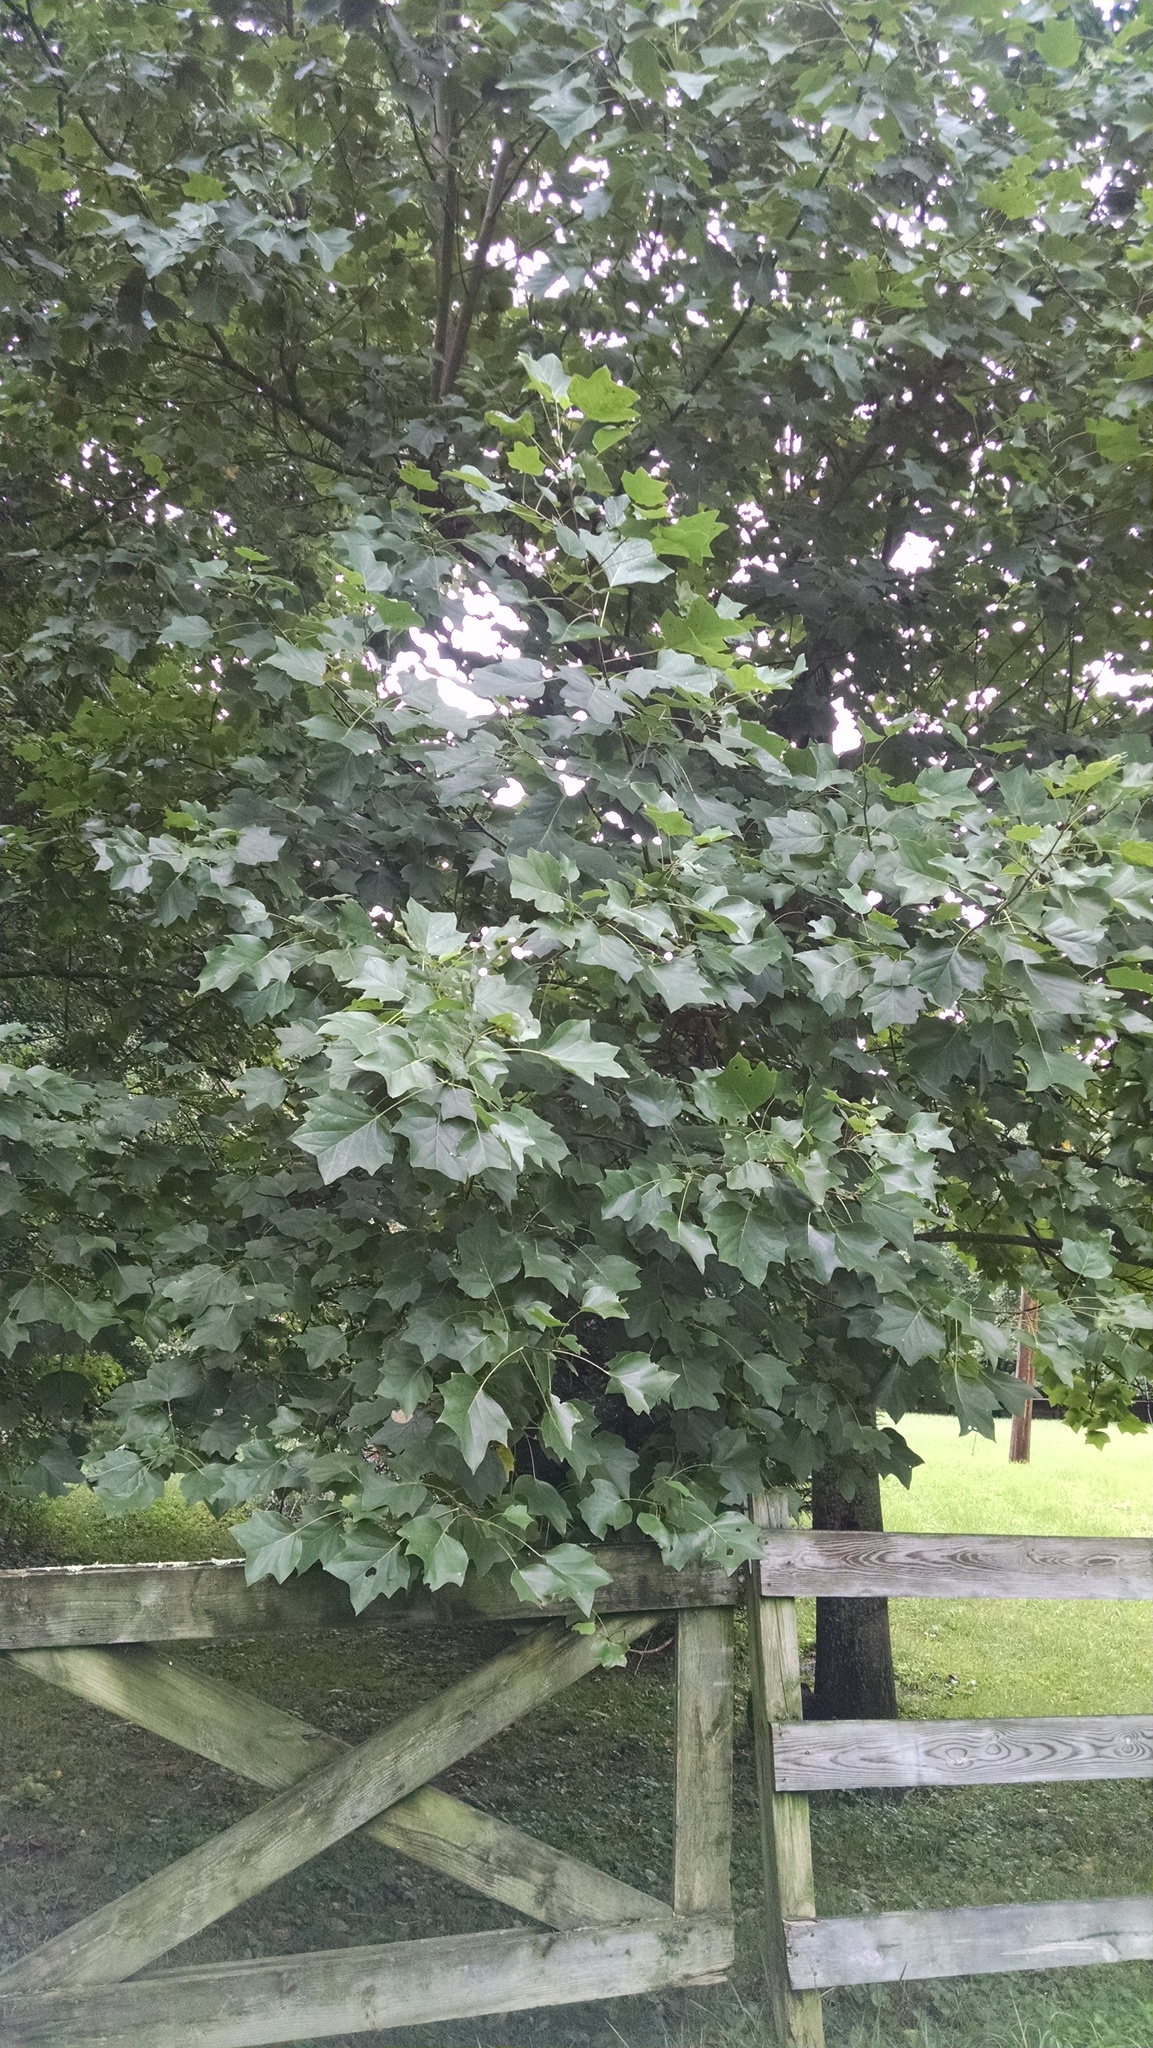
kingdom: Plantae
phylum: Tracheophyta
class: Magnoliopsida
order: Magnoliales
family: Magnoliaceae
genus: Liriodendron
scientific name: Liriodendron tulipifera
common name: Tulip tree
